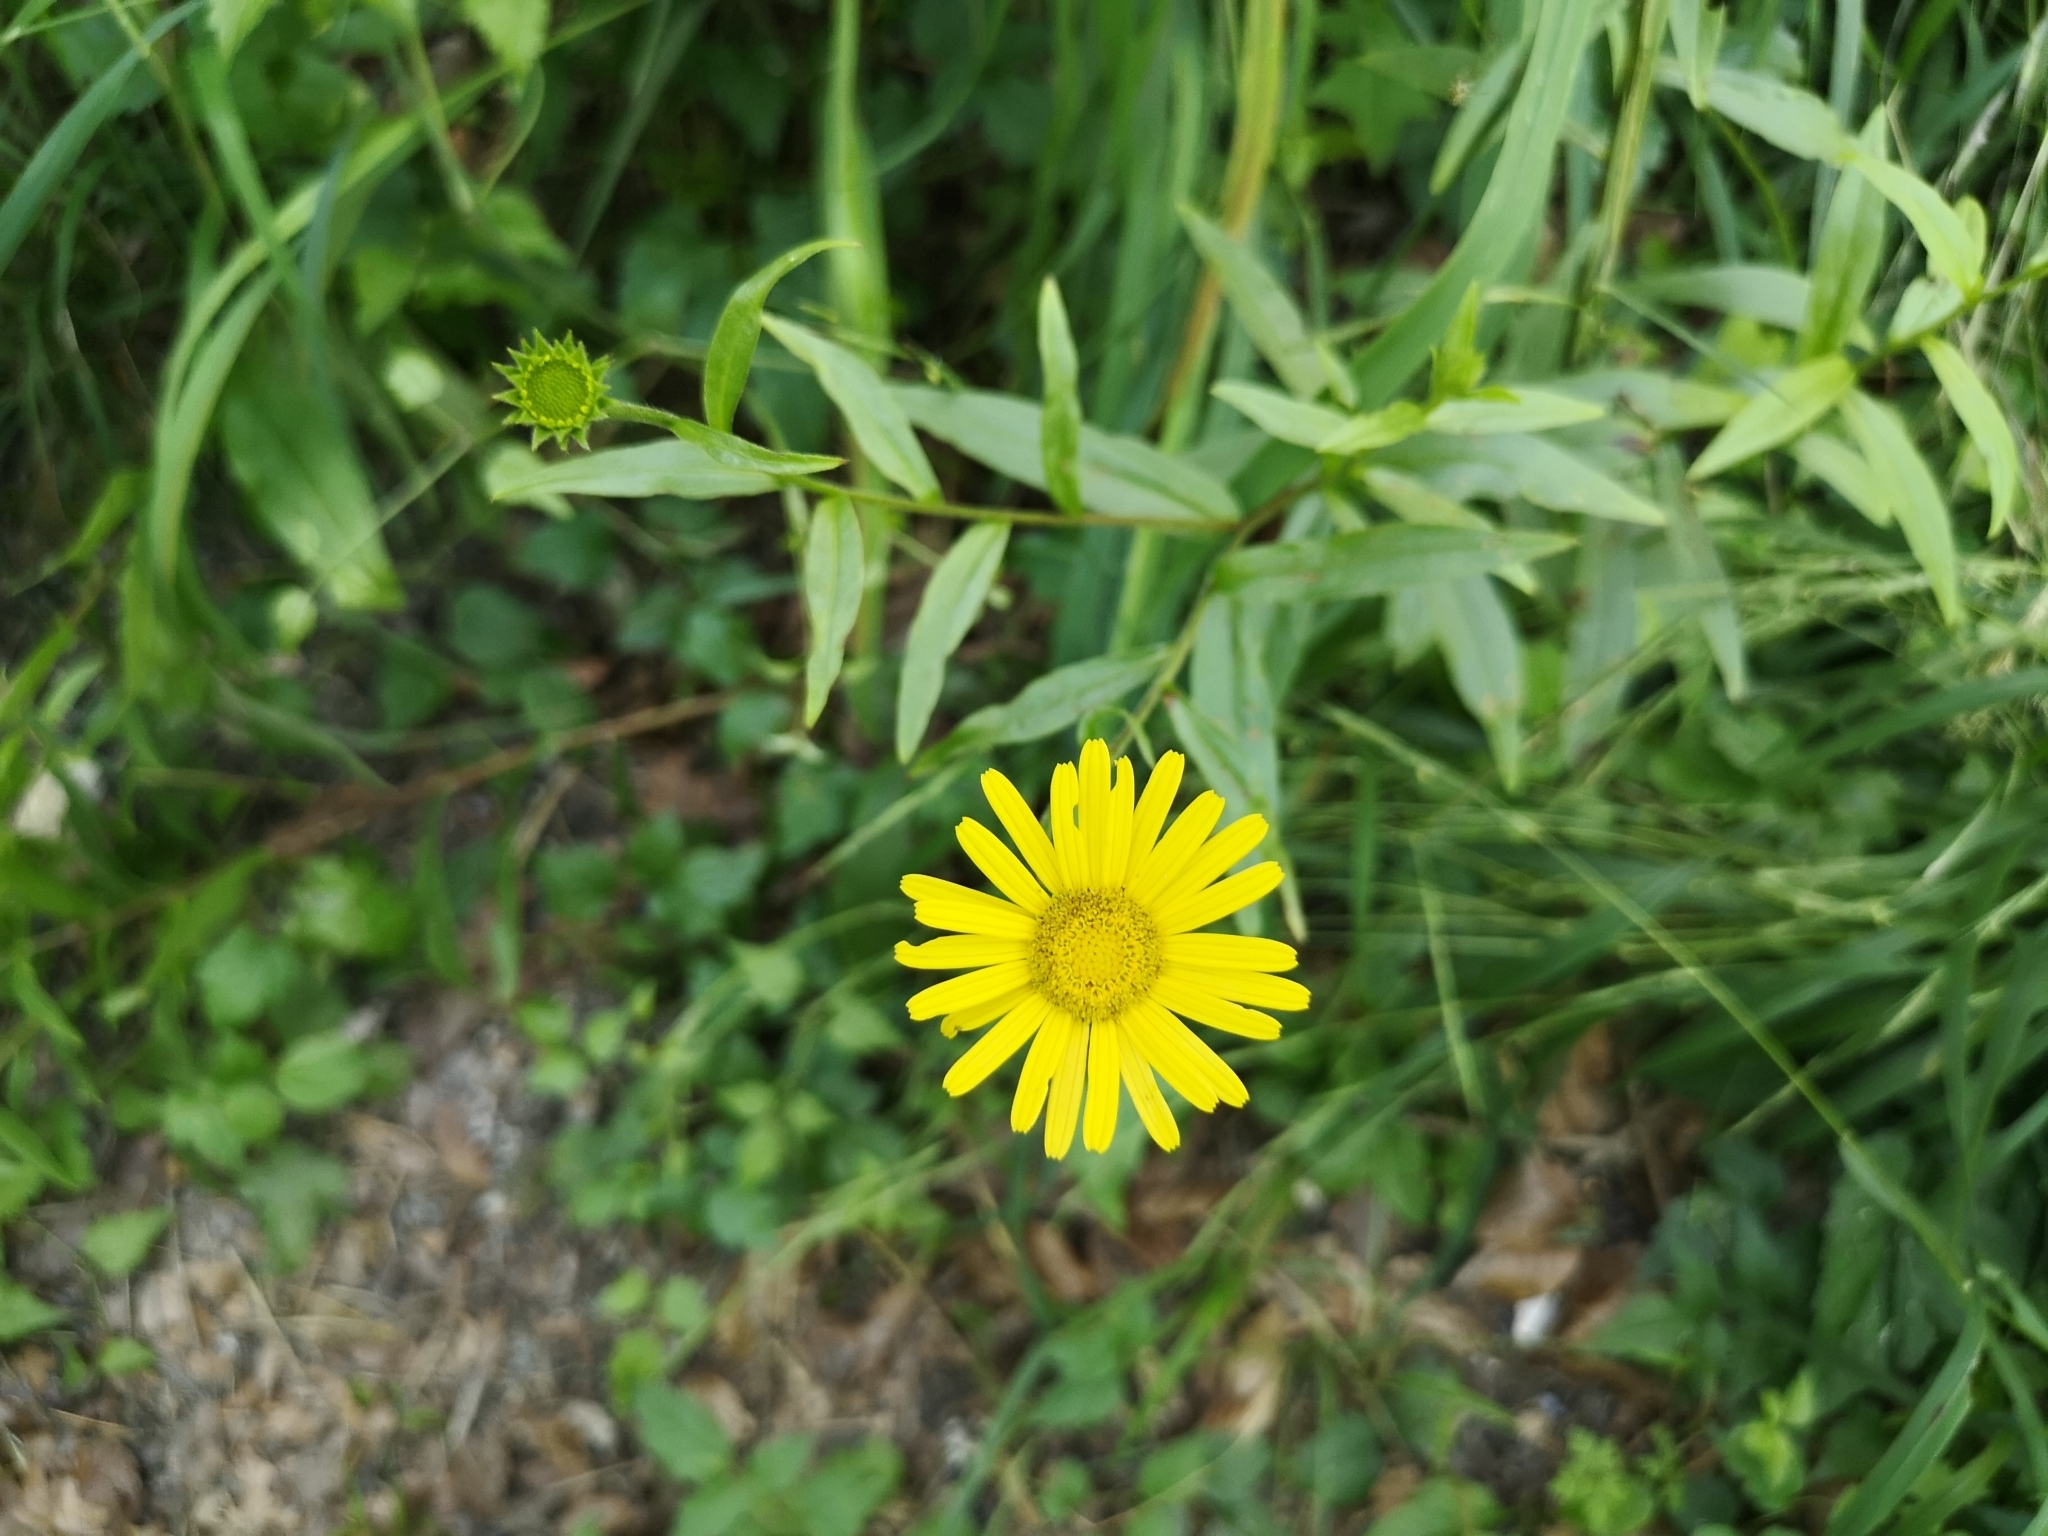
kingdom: Plantae
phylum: Tracheophyta
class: Magnoliopsida
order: Asterales
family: Asteraceae
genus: Buphthalmum
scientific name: Buphthalmum salicifolium
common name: Willow-leaved yellow-oxeye
